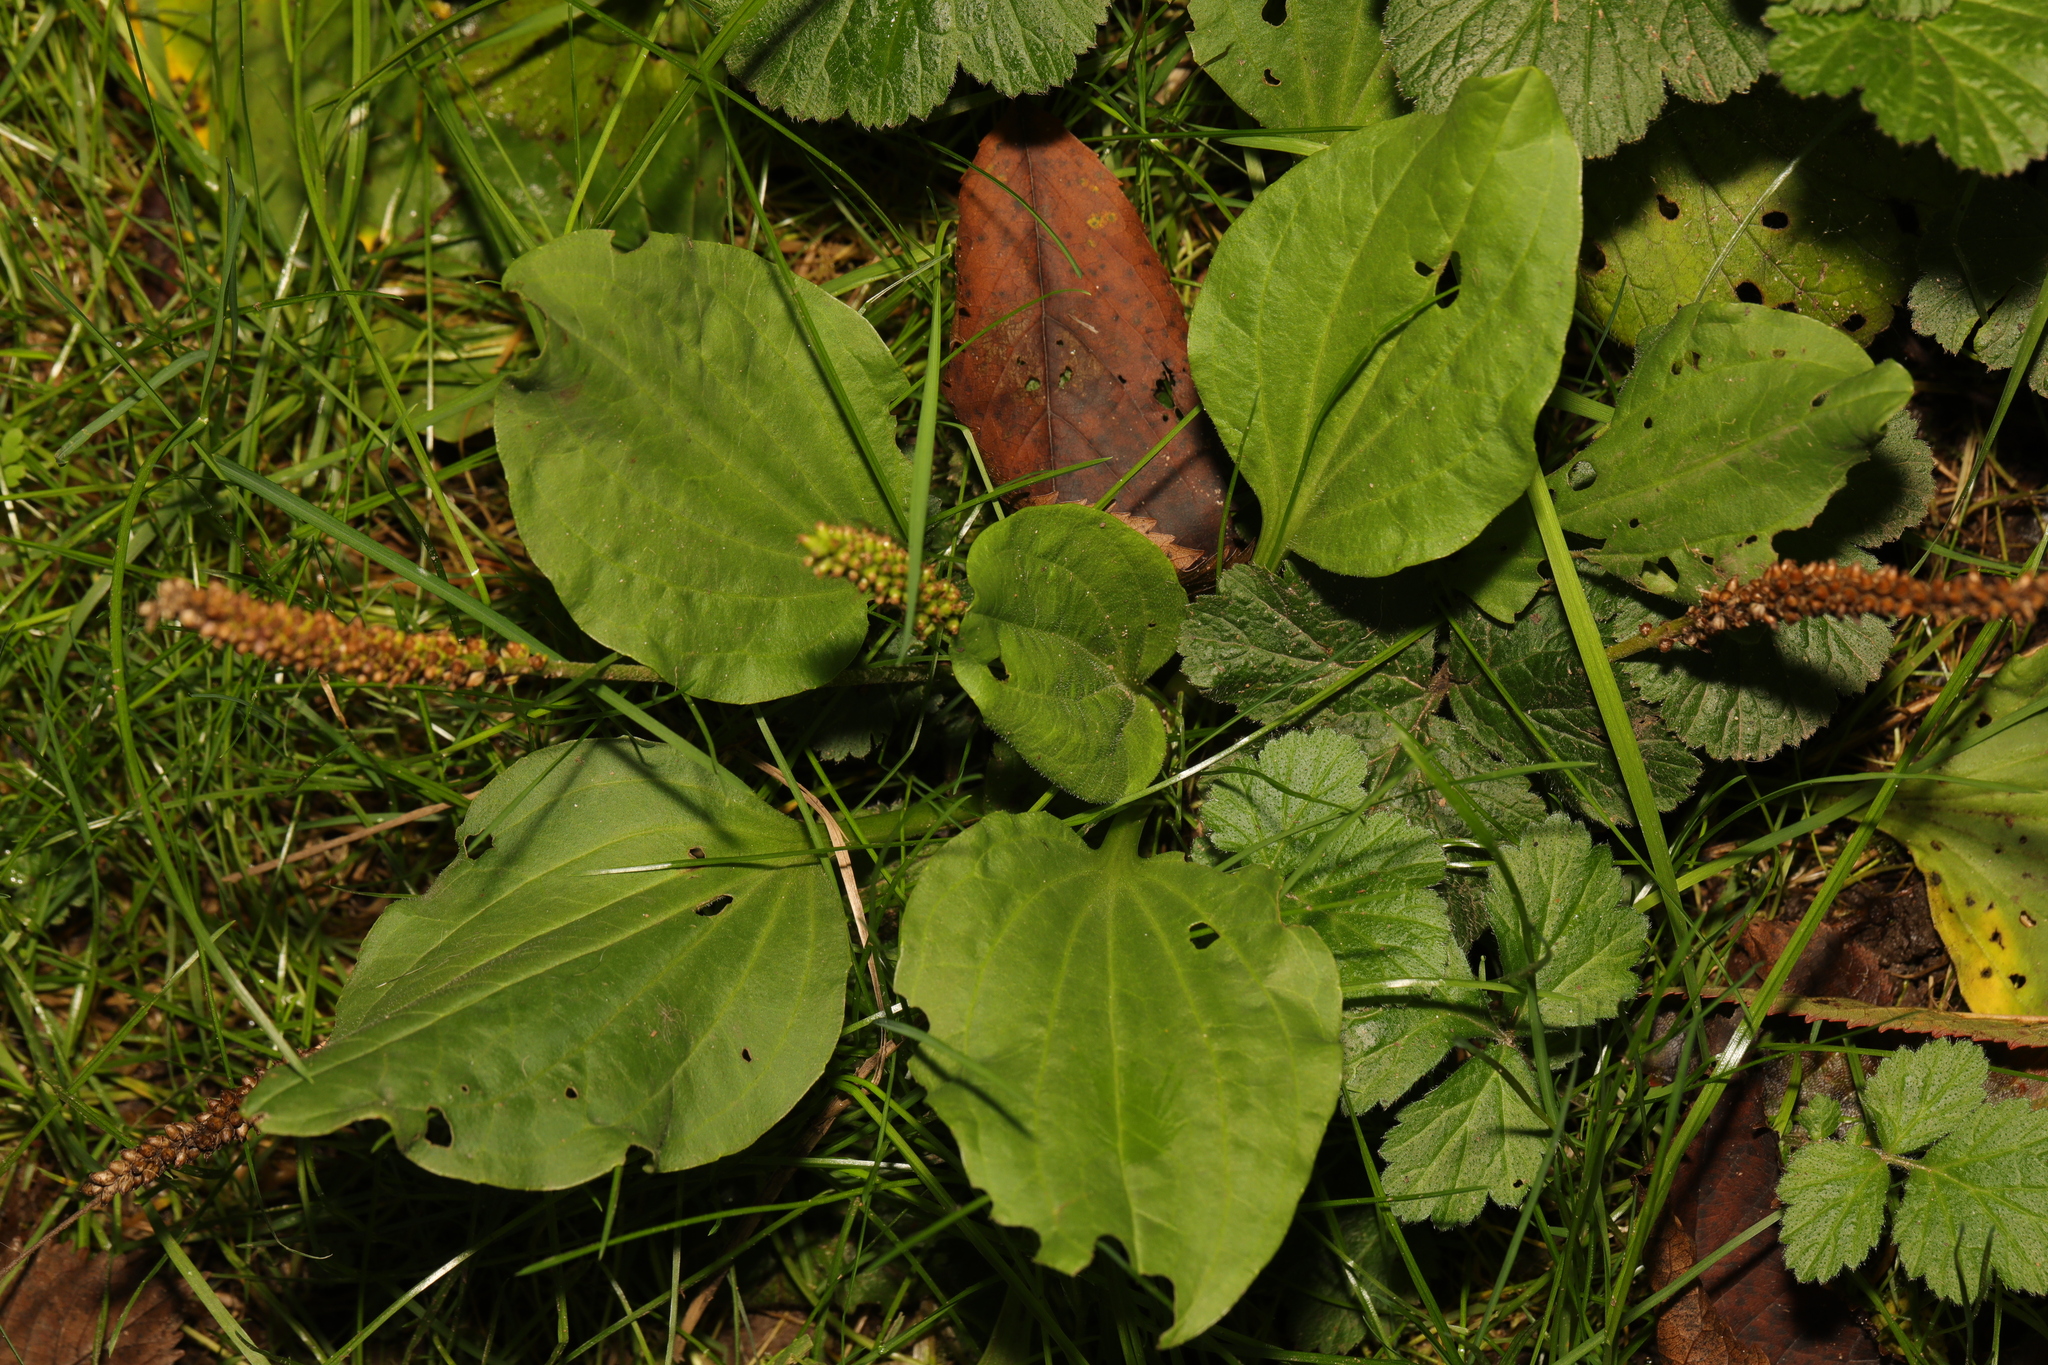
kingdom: Plantae
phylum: Tracheophyta
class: Magnoliopsida
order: Lamiales
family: Plantaginaceae
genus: Plantago
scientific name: Plantago major
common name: Common plantain
